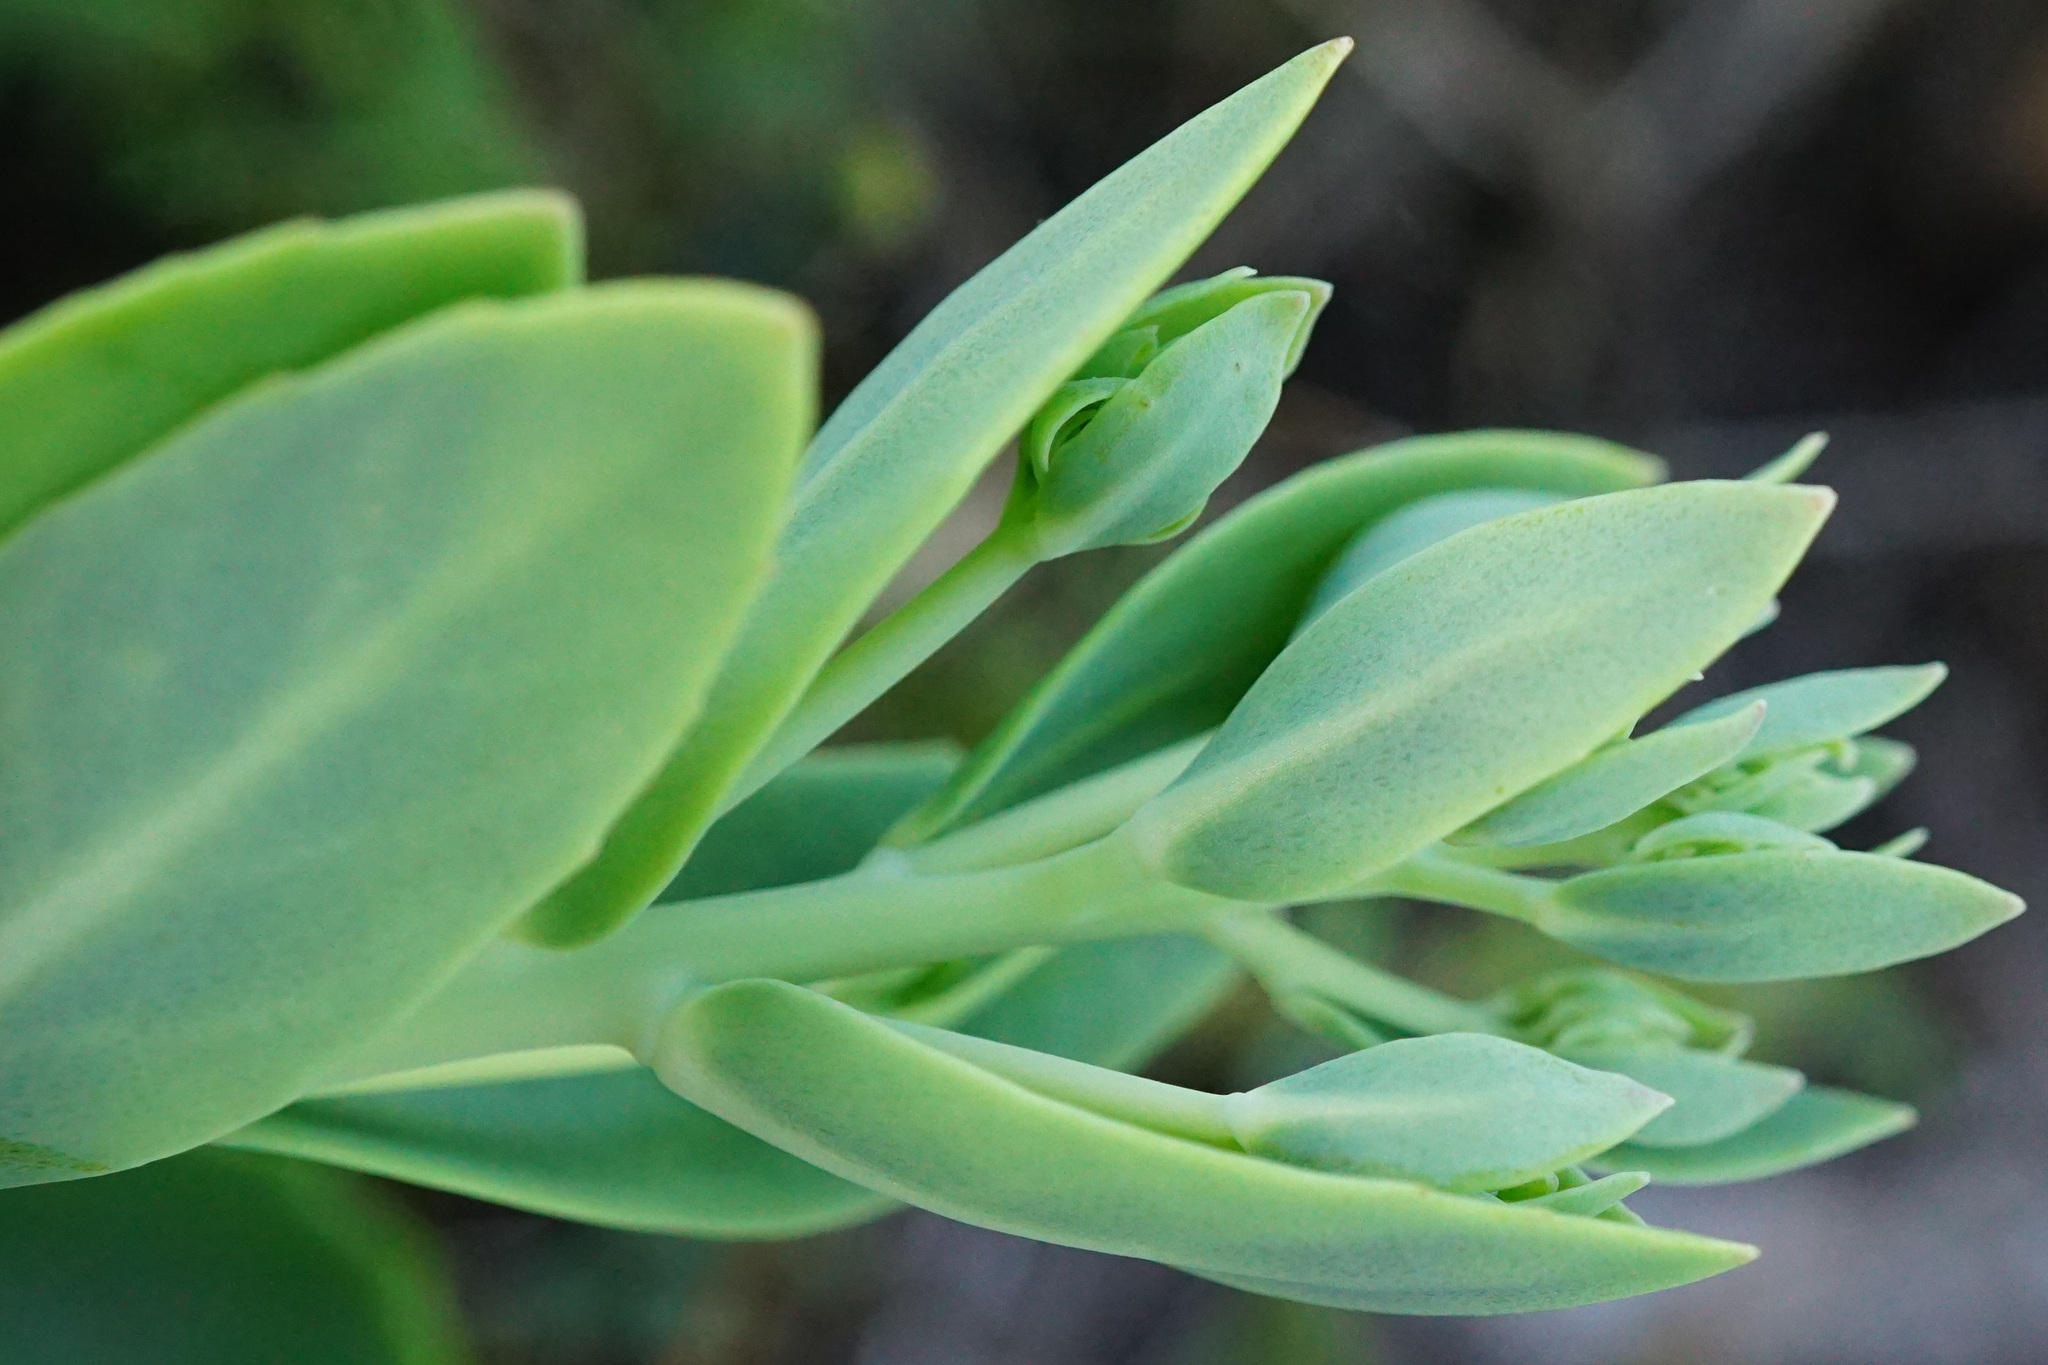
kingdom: Plantae
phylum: Tracheophyta
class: Magnoliopsida
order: Saxifragales
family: Crassulaceae
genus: Hylotelephium
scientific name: Hylotelephium
